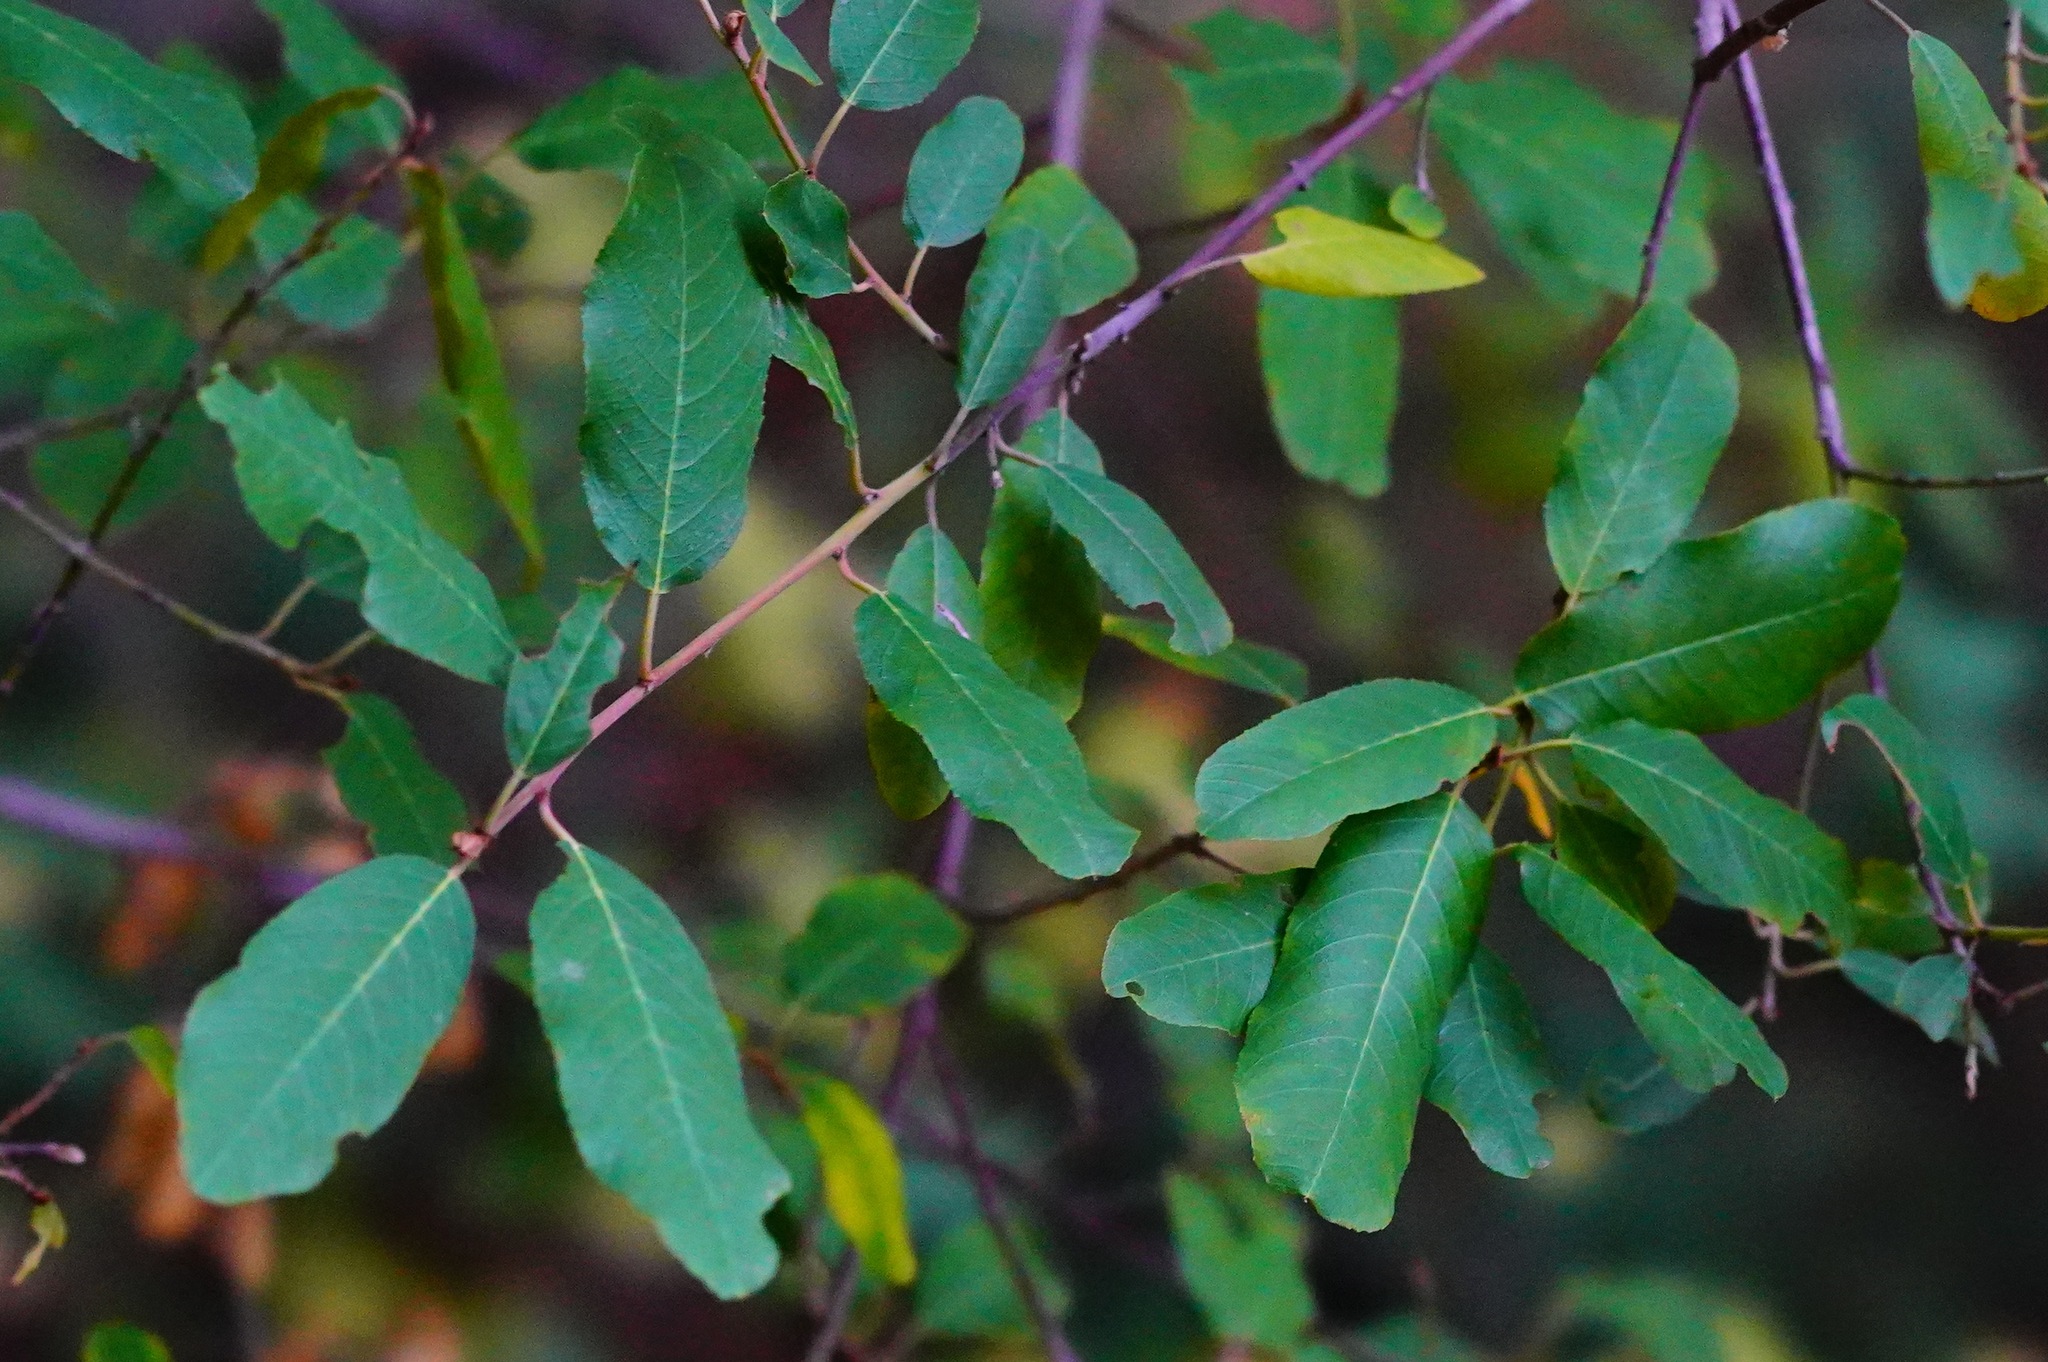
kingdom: Plantae
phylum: Tracheophyta
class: Magnoliopsida
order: Rosales
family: Rhamnaceae
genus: Frangula
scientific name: Frangula californica
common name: California buckthorn
